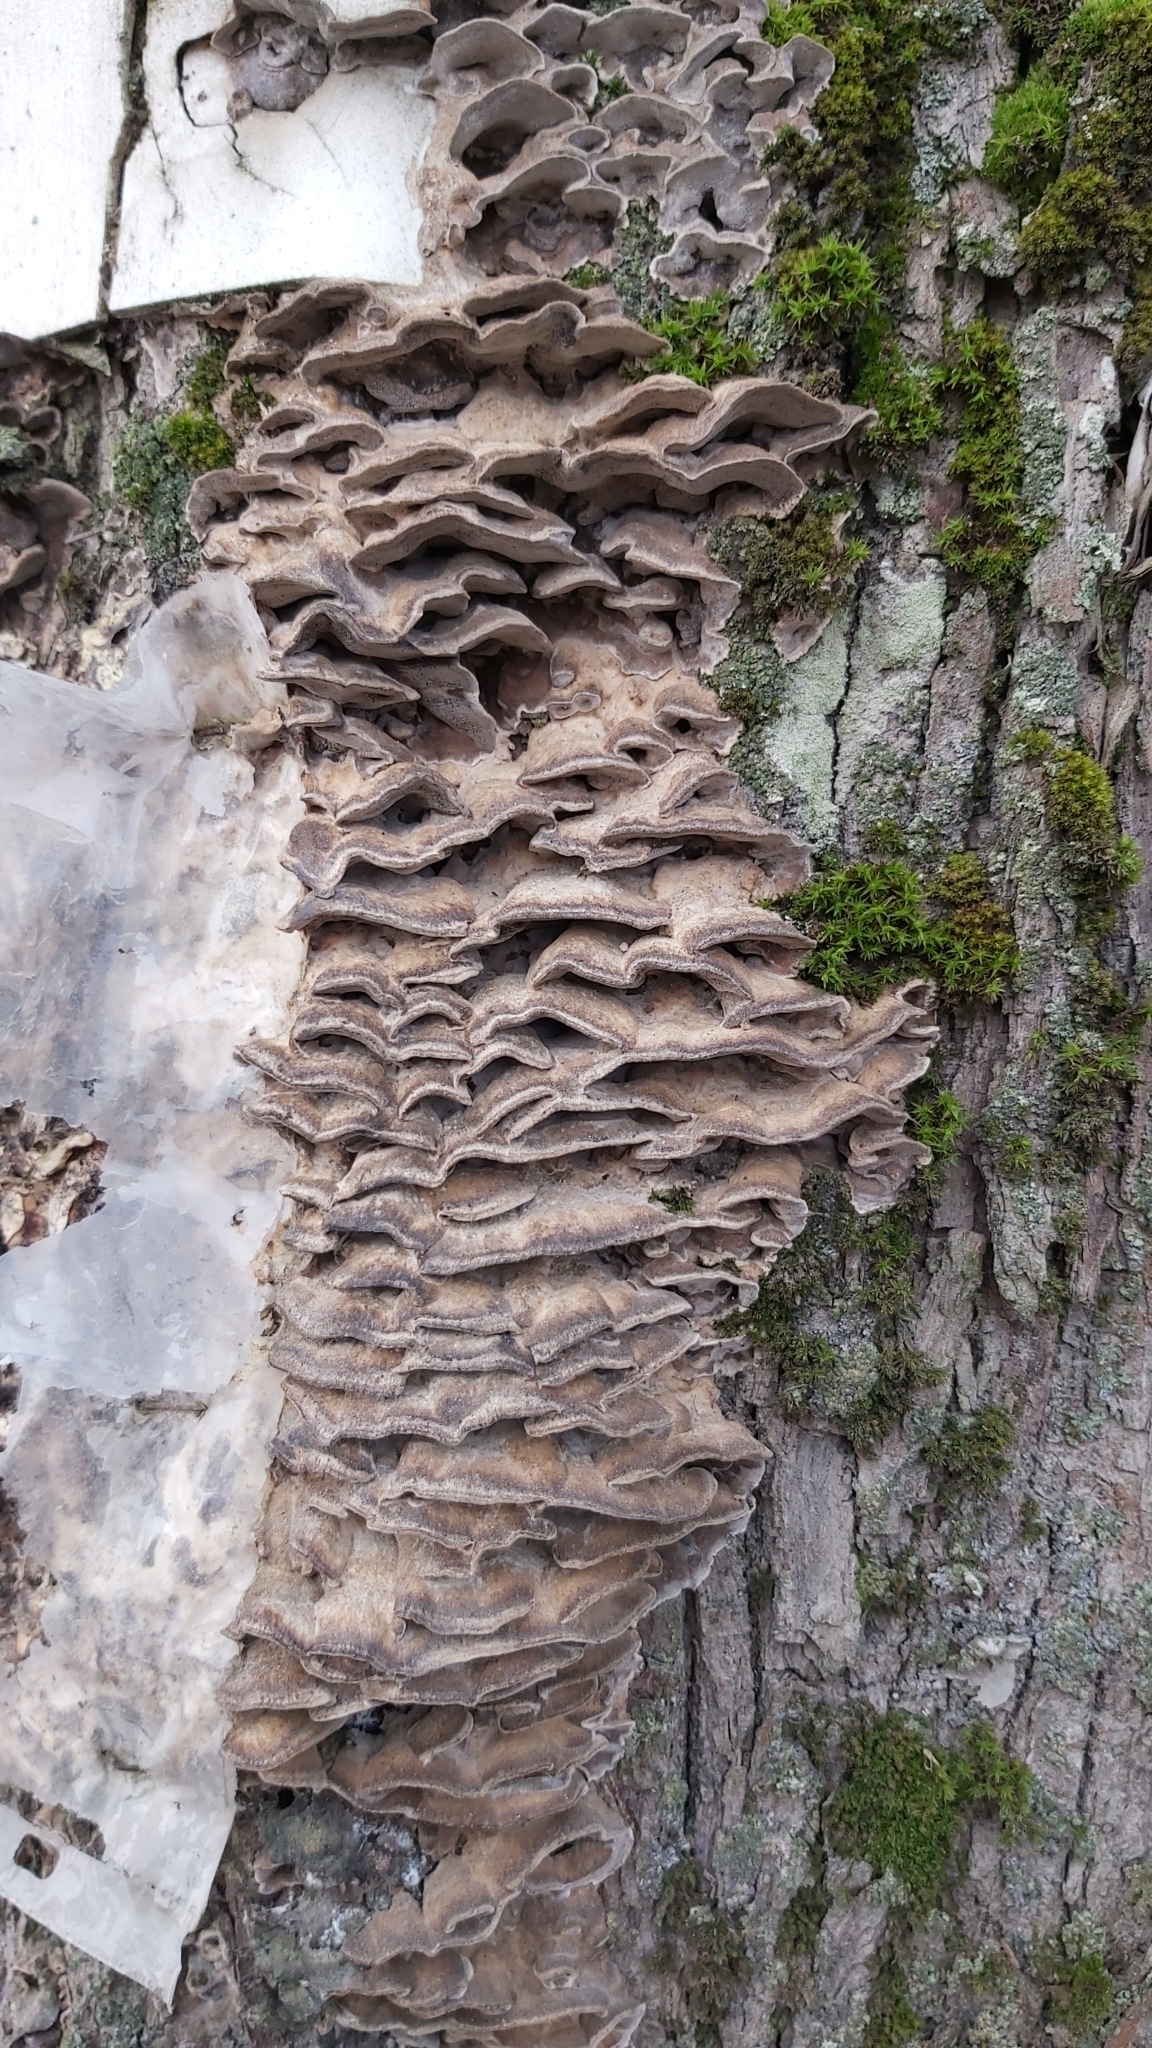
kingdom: Fungi
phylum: Basidiomycota
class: Agaricomycetes
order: Polyporales
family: Phanerochaetaceae
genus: Bjerkandera
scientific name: Bjerkandera adusta
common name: Smoky bracket
